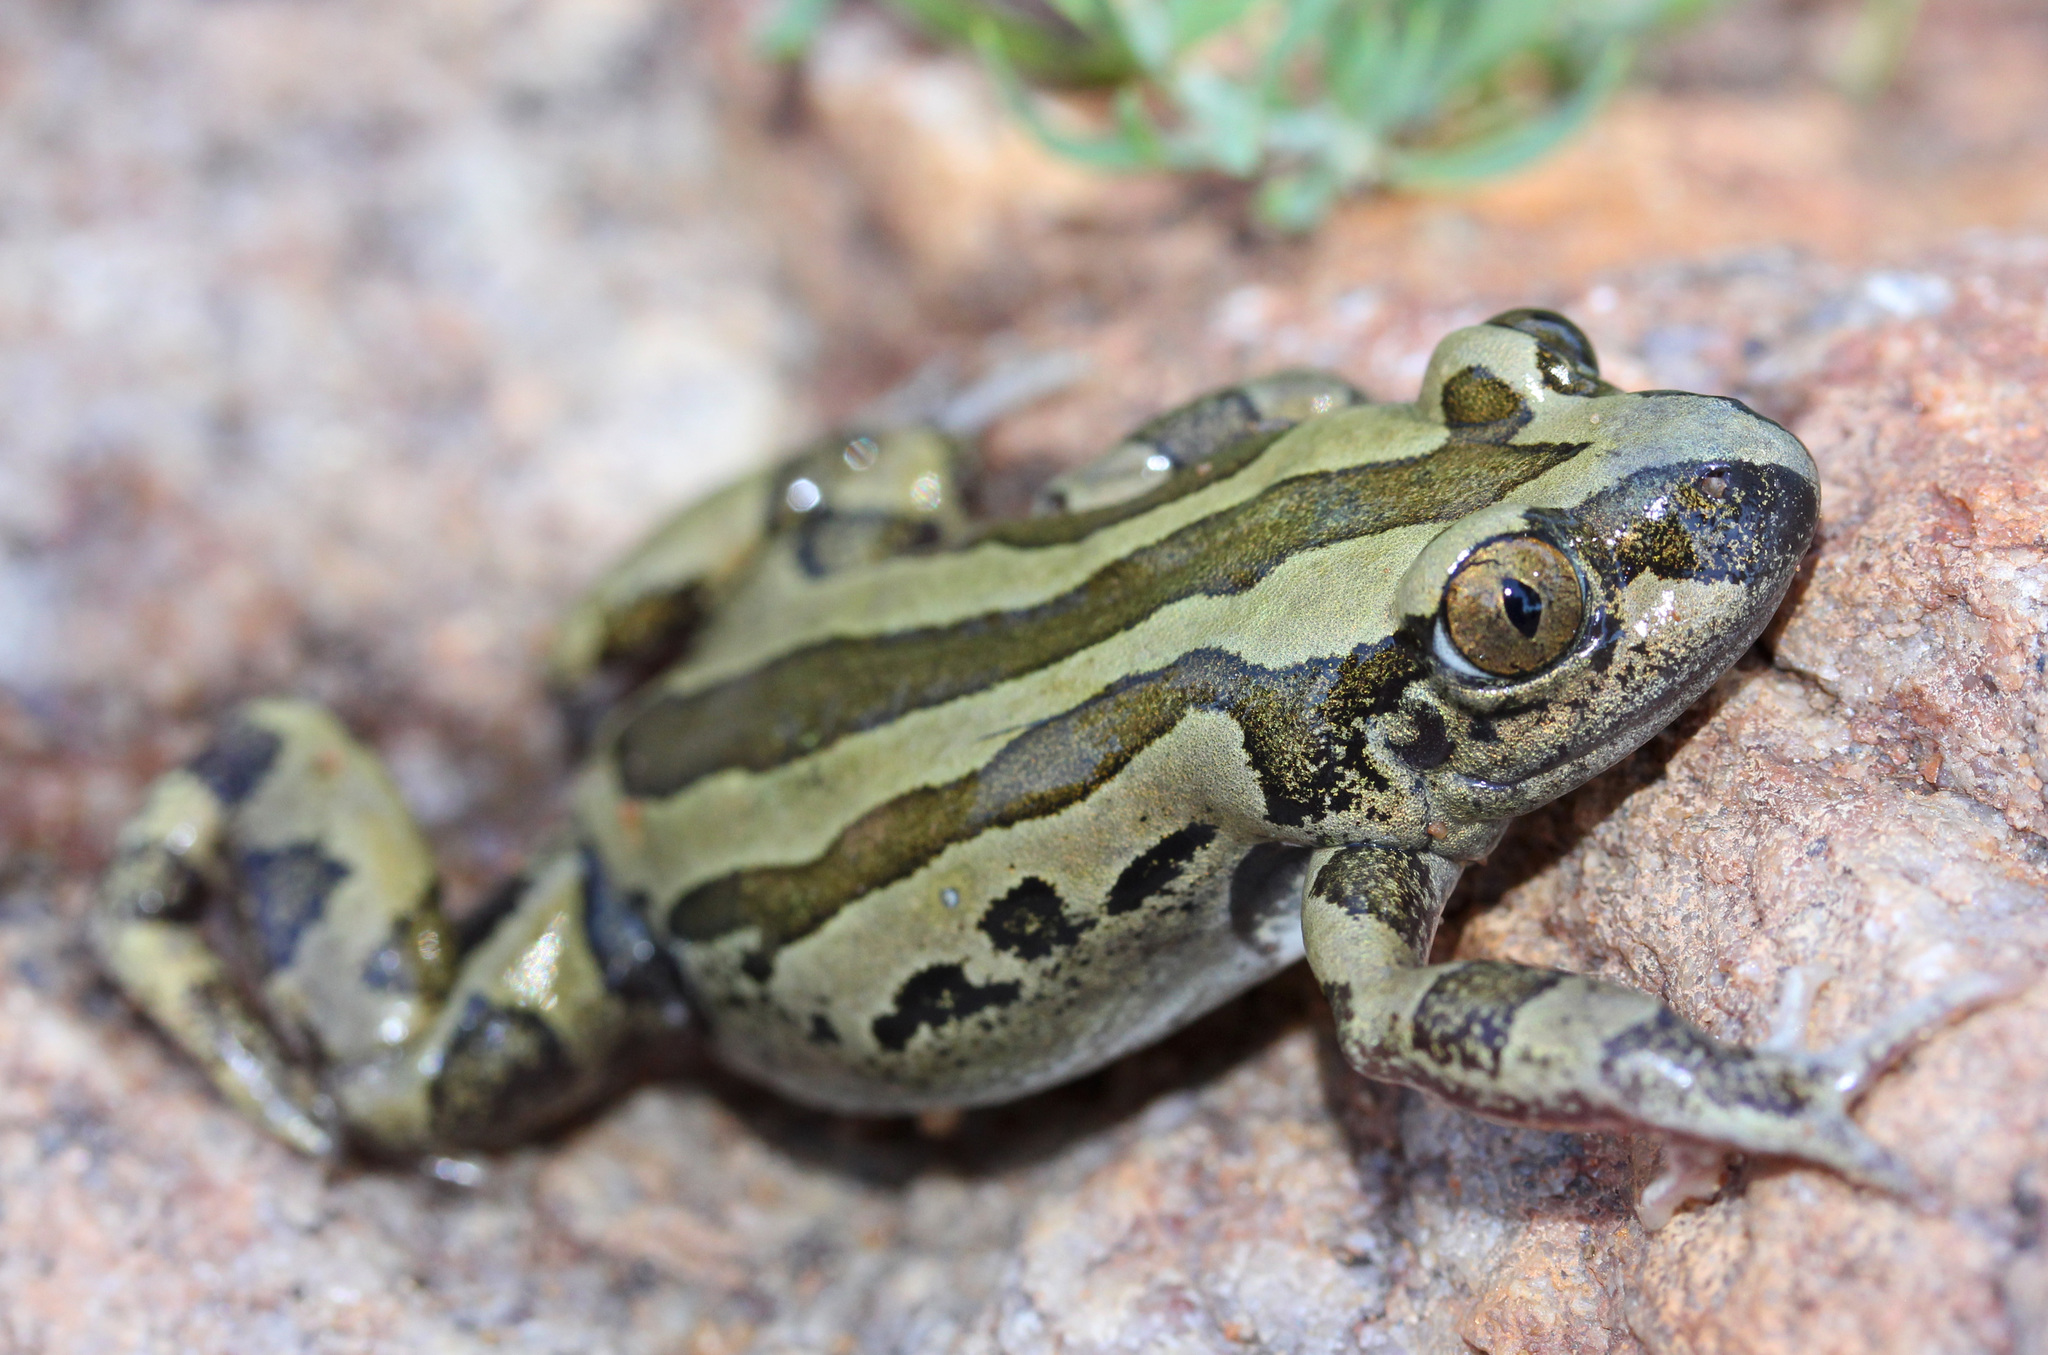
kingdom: Animalia
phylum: Chordata
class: Amphibia
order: Anura
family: Hyperoliidae
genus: Kassina
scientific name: Kassina senegalensis
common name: Senegal land frog
